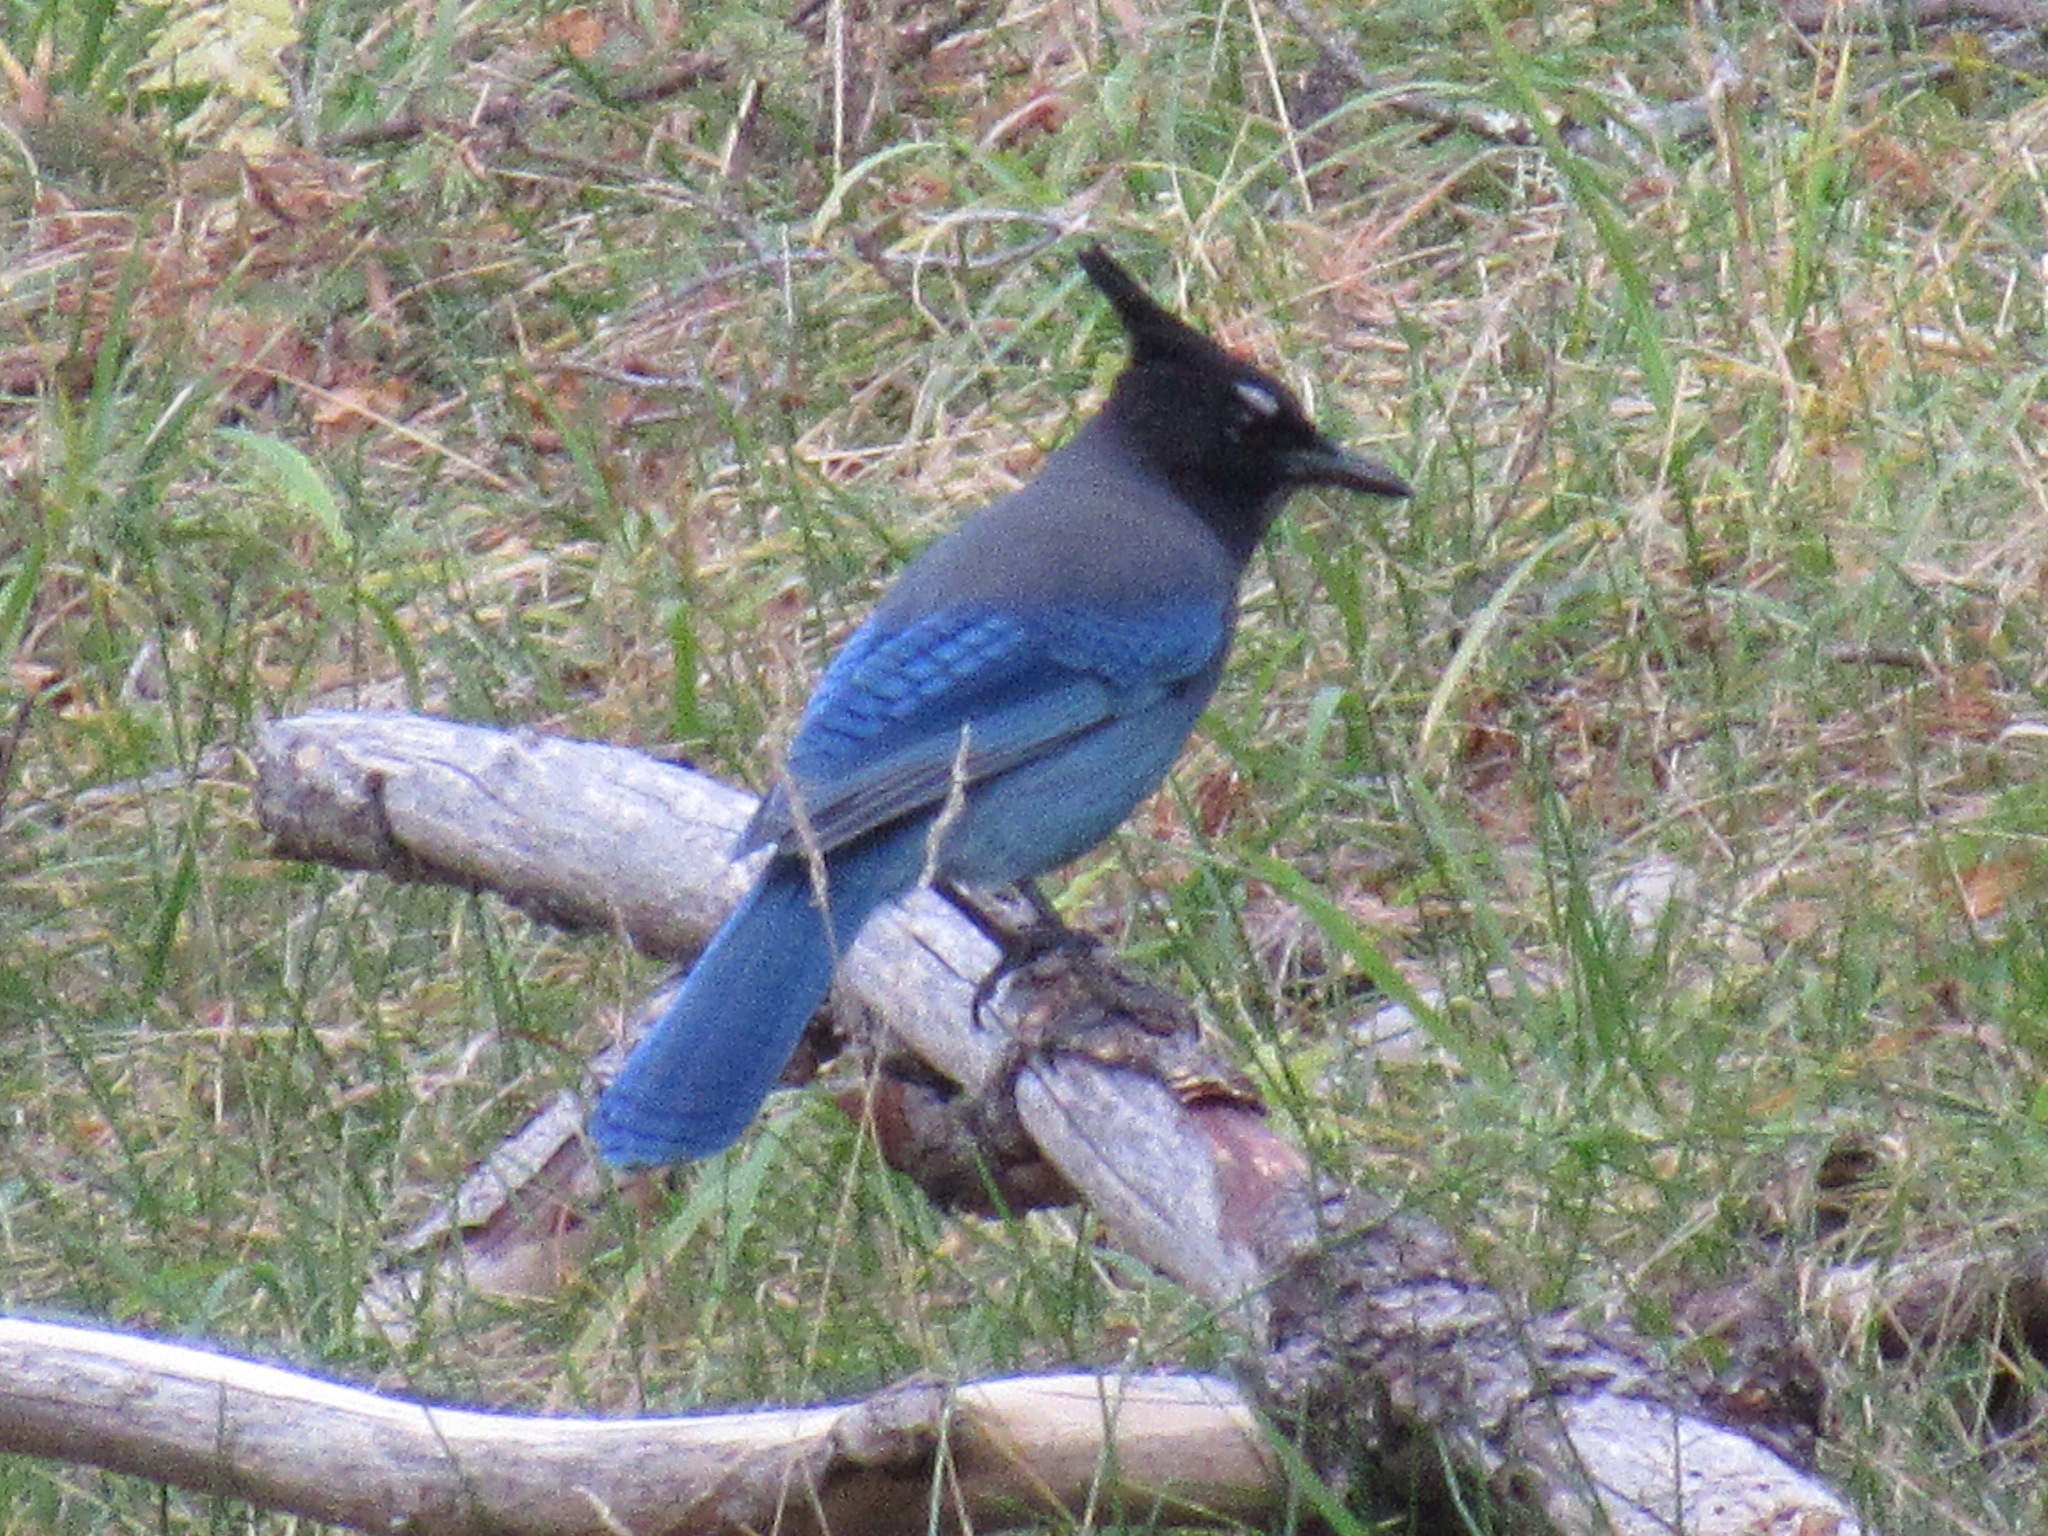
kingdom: Animalia
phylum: Chordata
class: Aves
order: Passeriformes
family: Corvidae
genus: Cyanocitta
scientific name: Cyanocitta stelleri
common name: Steller's jay
